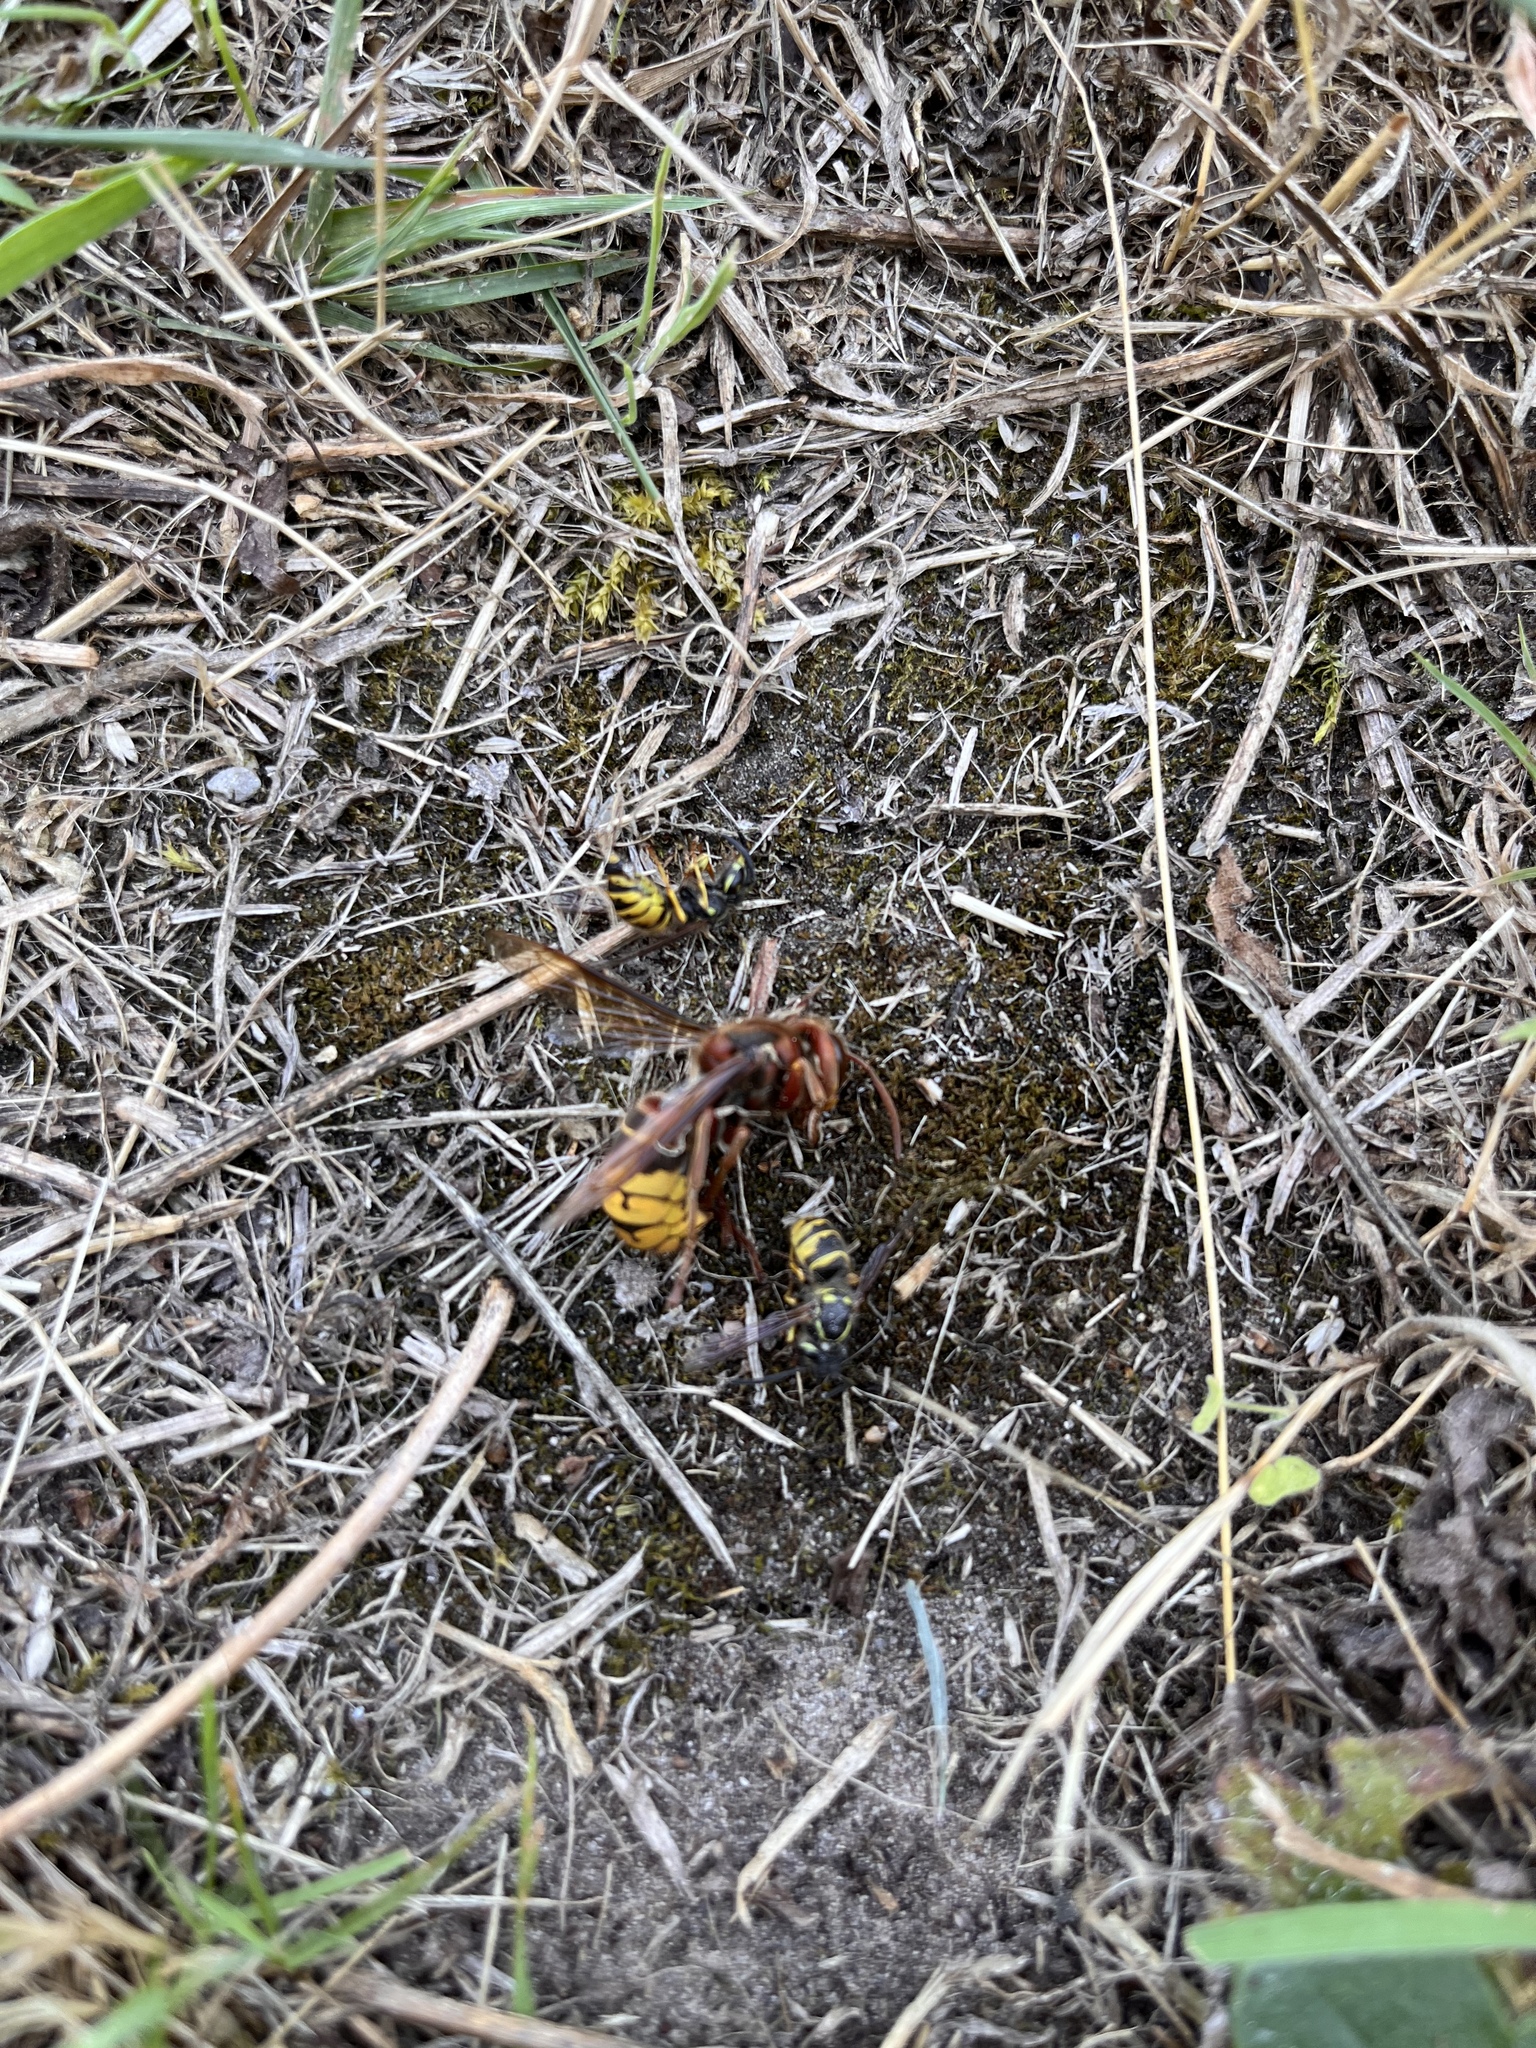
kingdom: Animalia
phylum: Arthropoda
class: Insecta
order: Hymenoptera
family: Vespidae
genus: Vespa
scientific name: Vespa crabro
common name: Hornet
